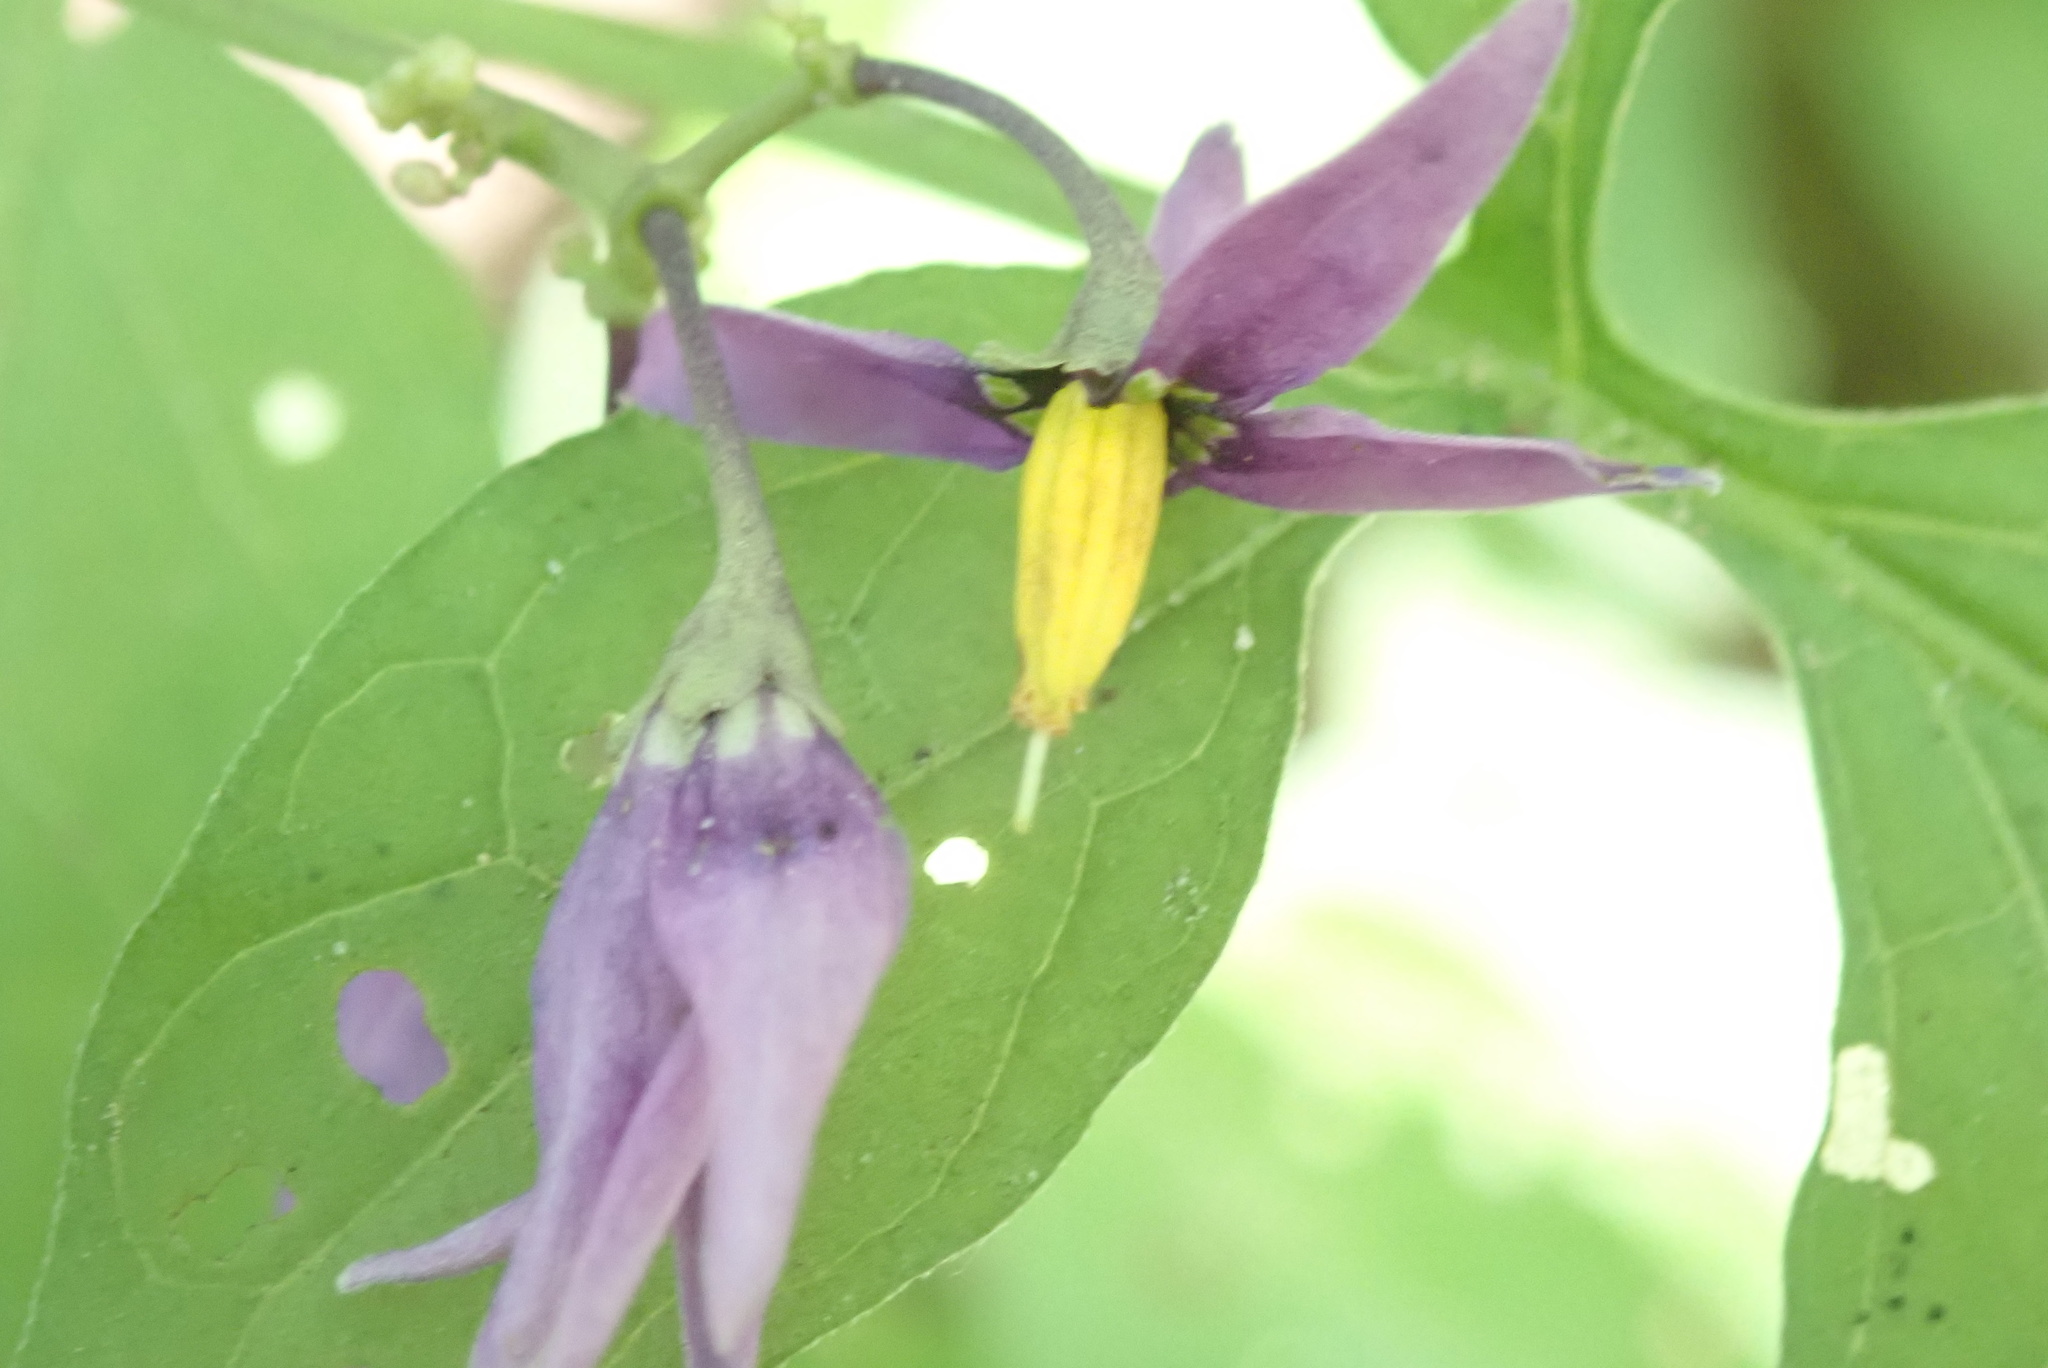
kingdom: Plantae
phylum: Tracheophyta
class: Magnoliopsida
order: Solanales
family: Solanaceae
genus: Solanum
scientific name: Solanum dulcamara
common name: Climbing nightshade
